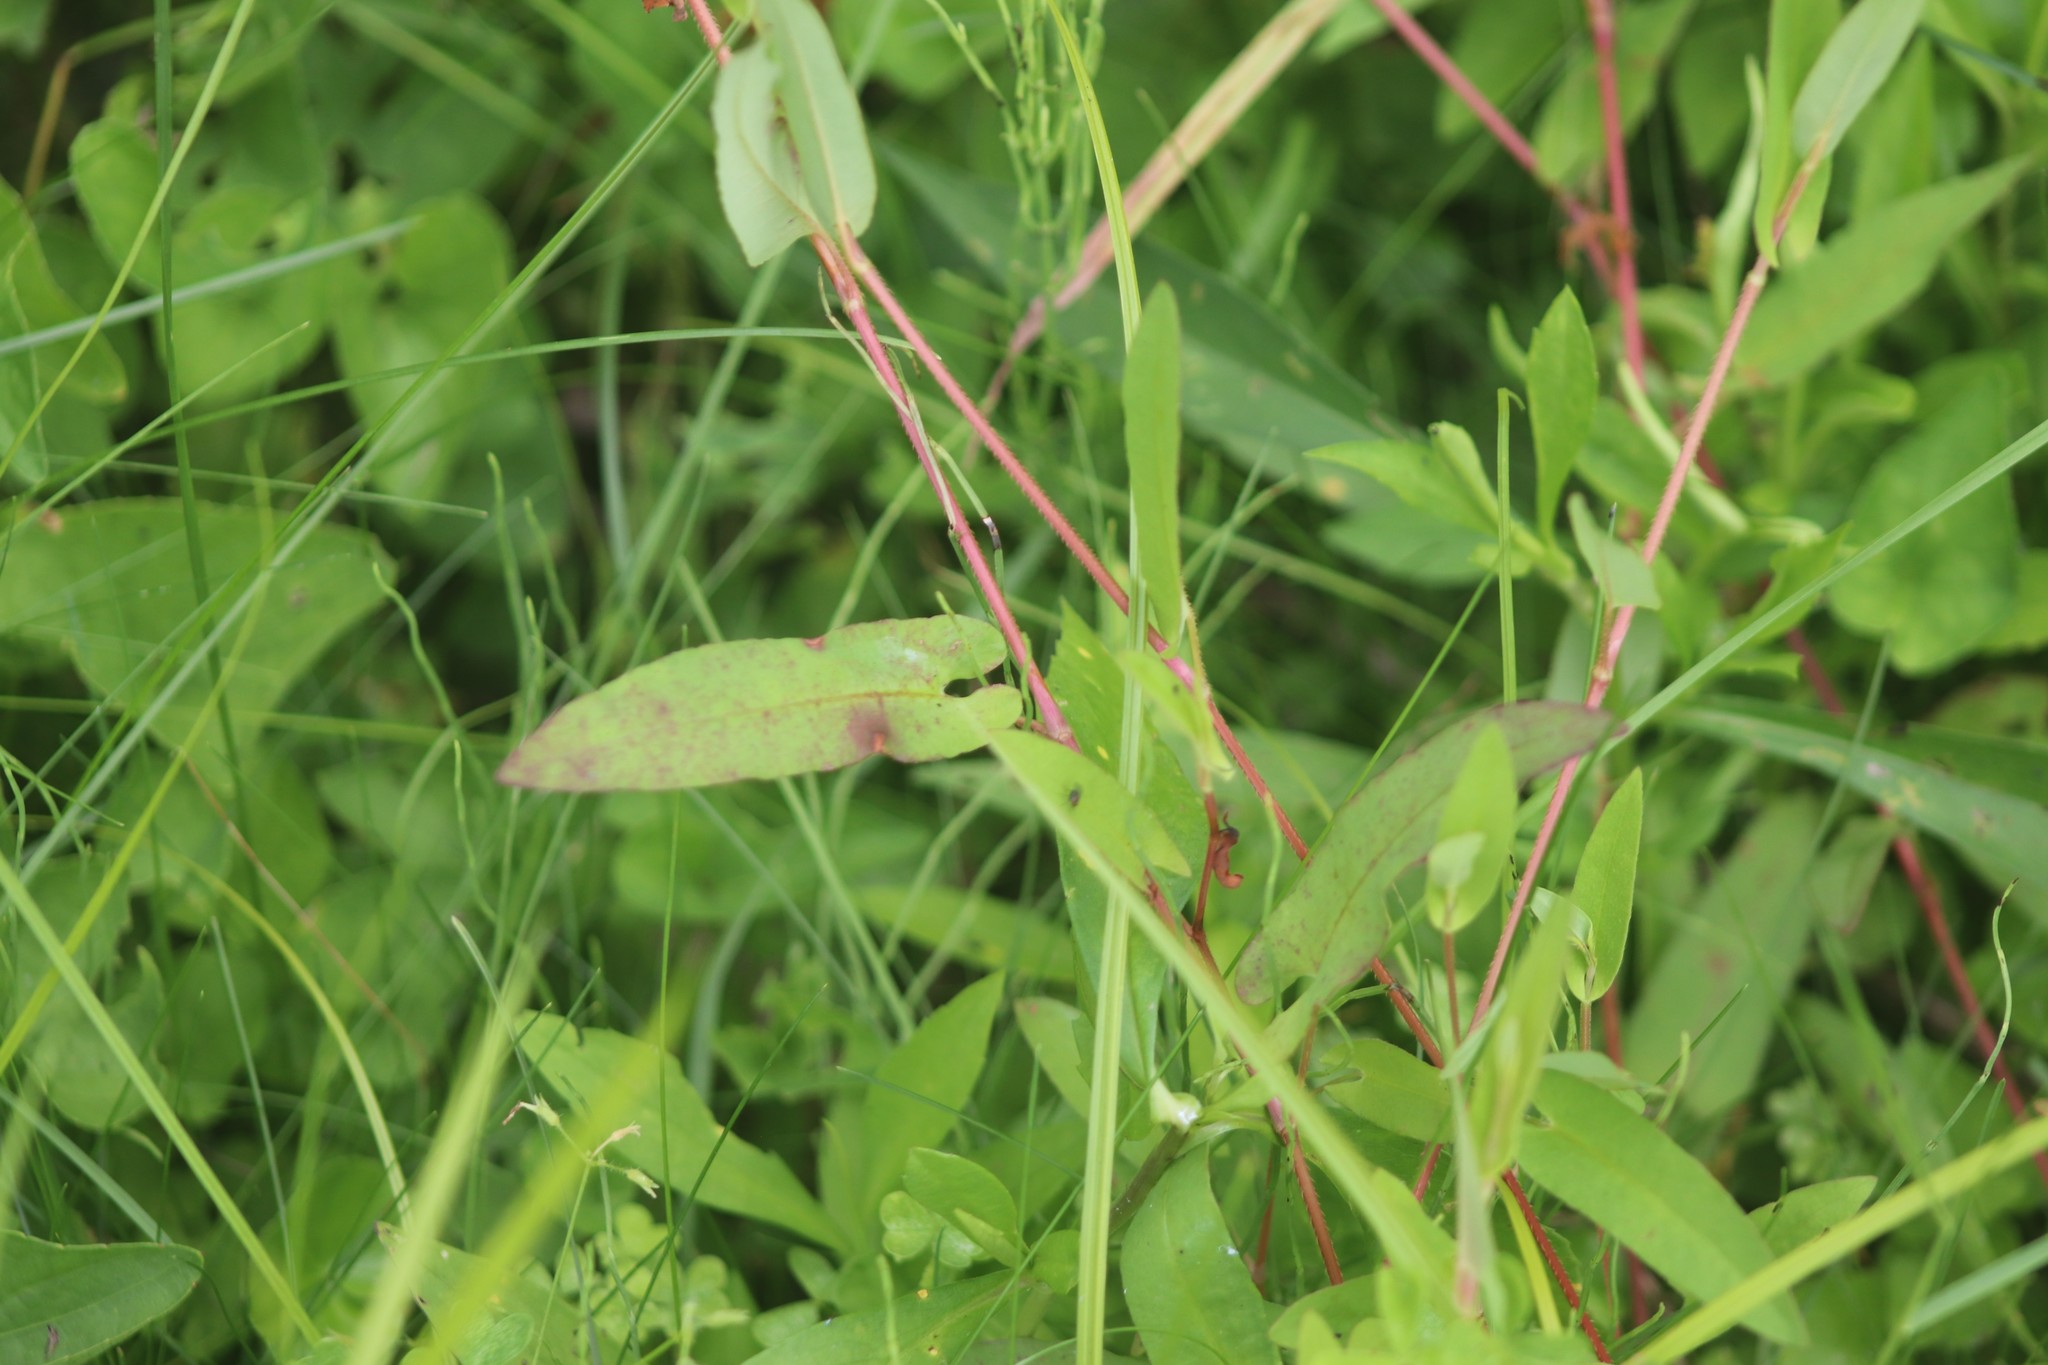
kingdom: Plantae
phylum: Tracheophyta
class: Magnoliopsida
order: Caryophyllales
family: Polygonaceae
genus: Persicaria
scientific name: Persicaria sagittata
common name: American tearthumb
